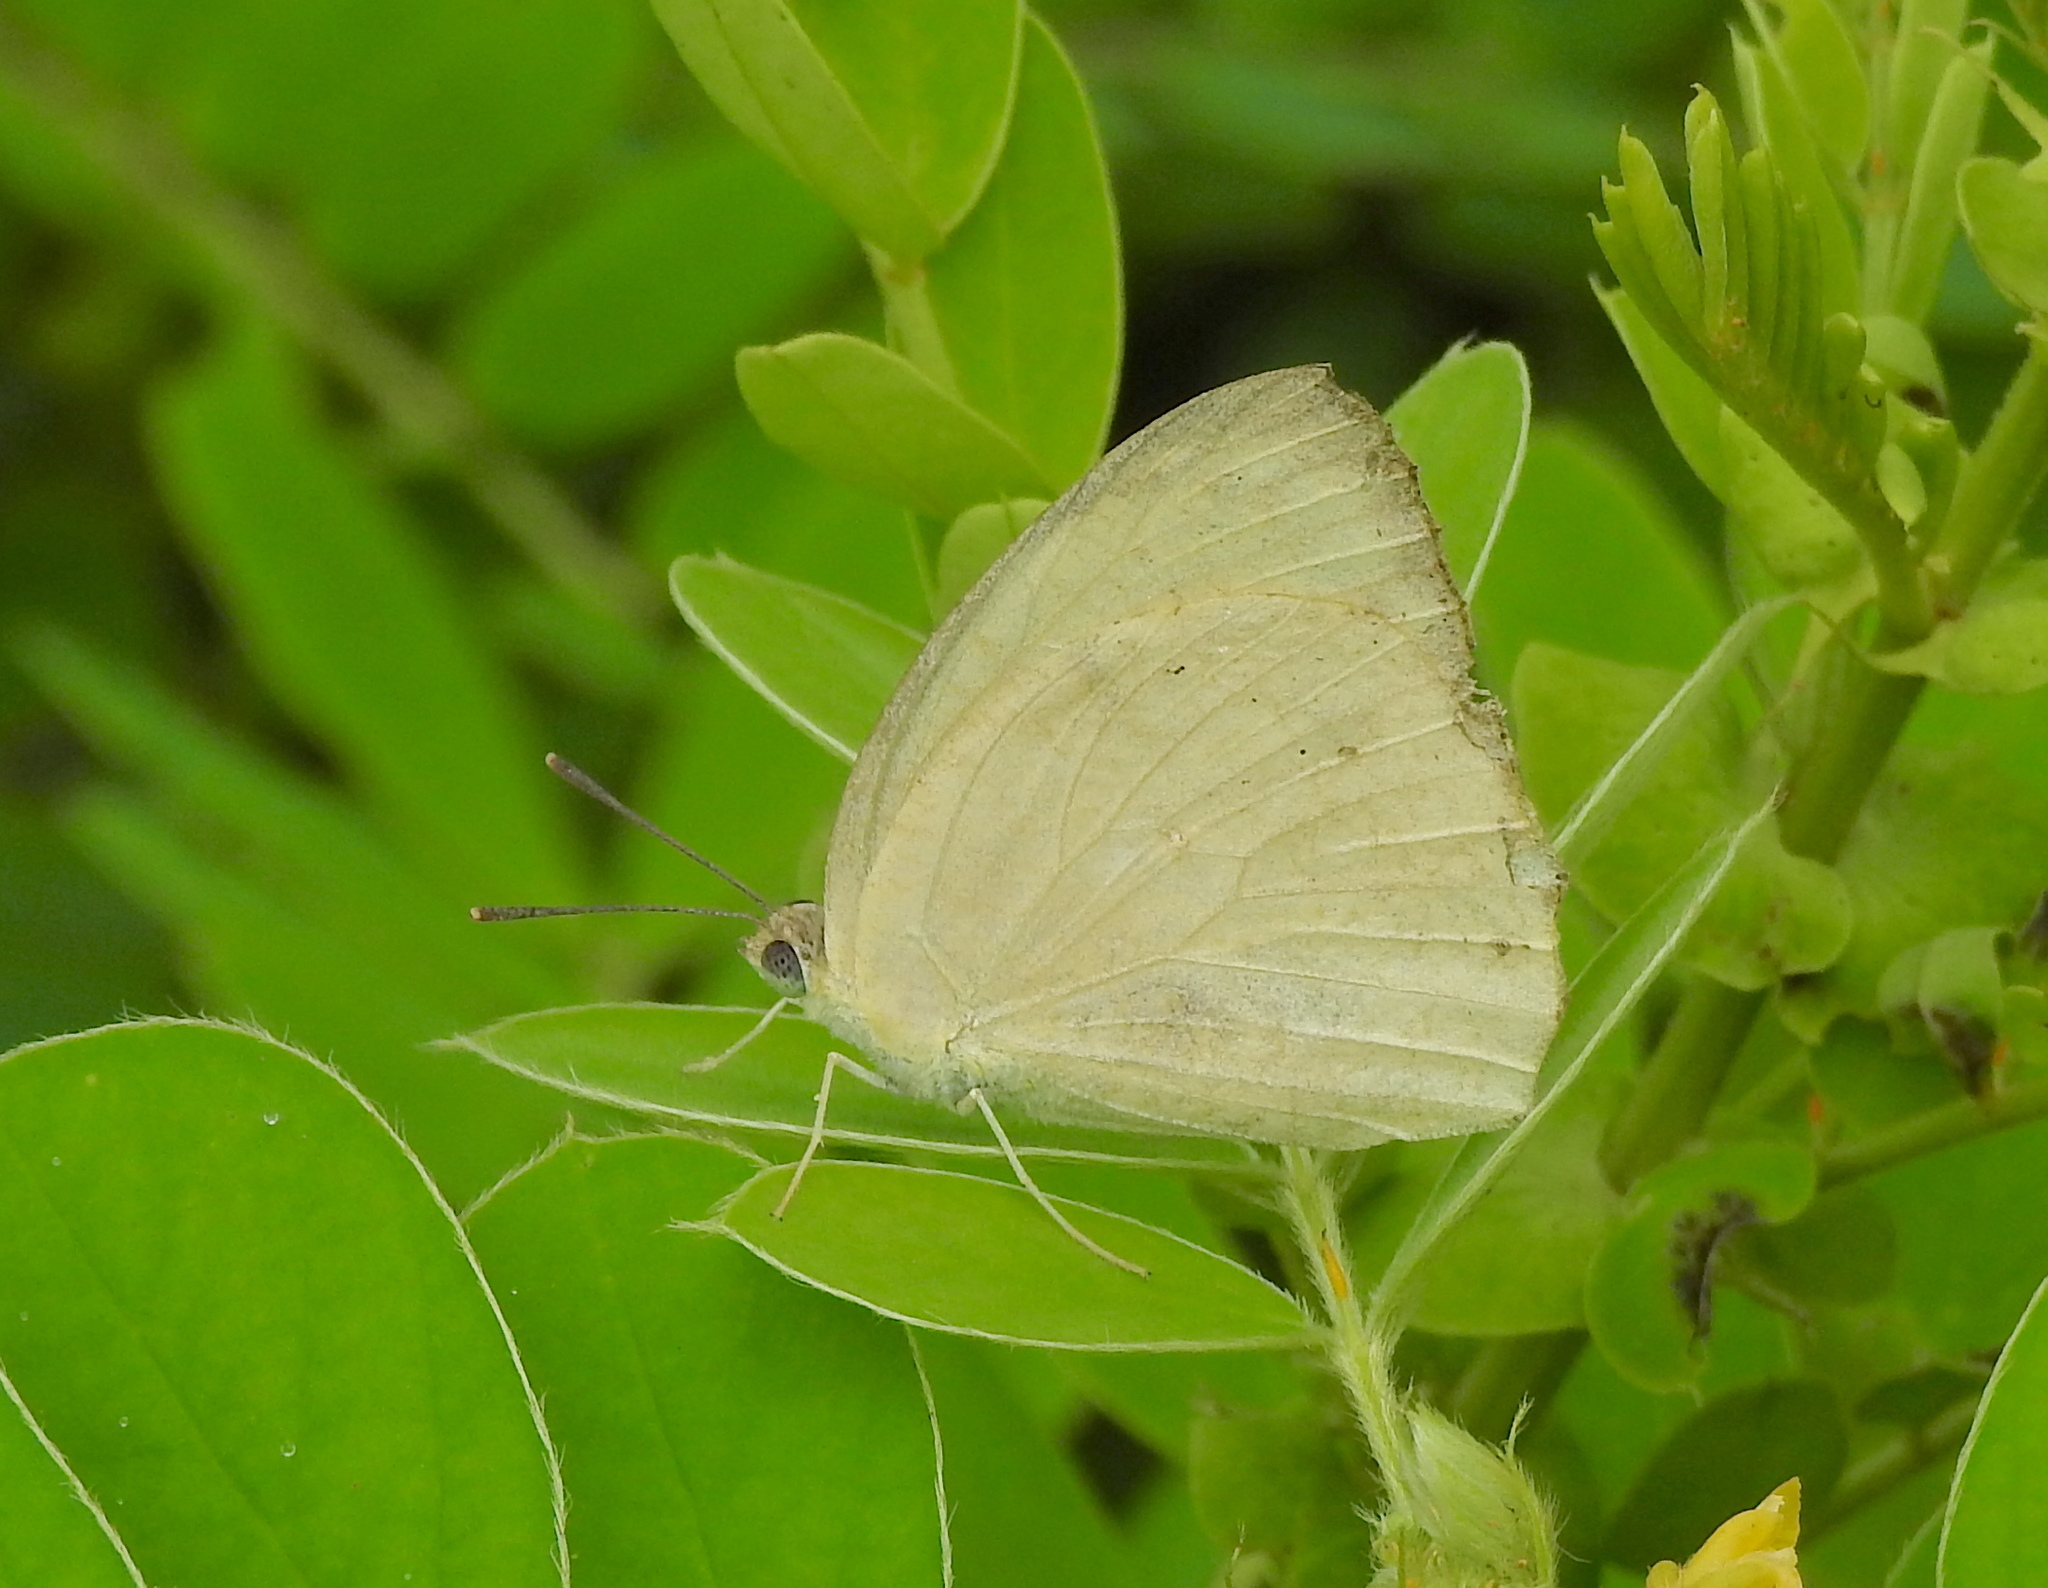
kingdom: Animalia
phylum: Arthropoda
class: Insecta
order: Lepidoptera
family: Pieridae
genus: Catopsilia
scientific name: Catopsilia pomona
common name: Common emigrant
